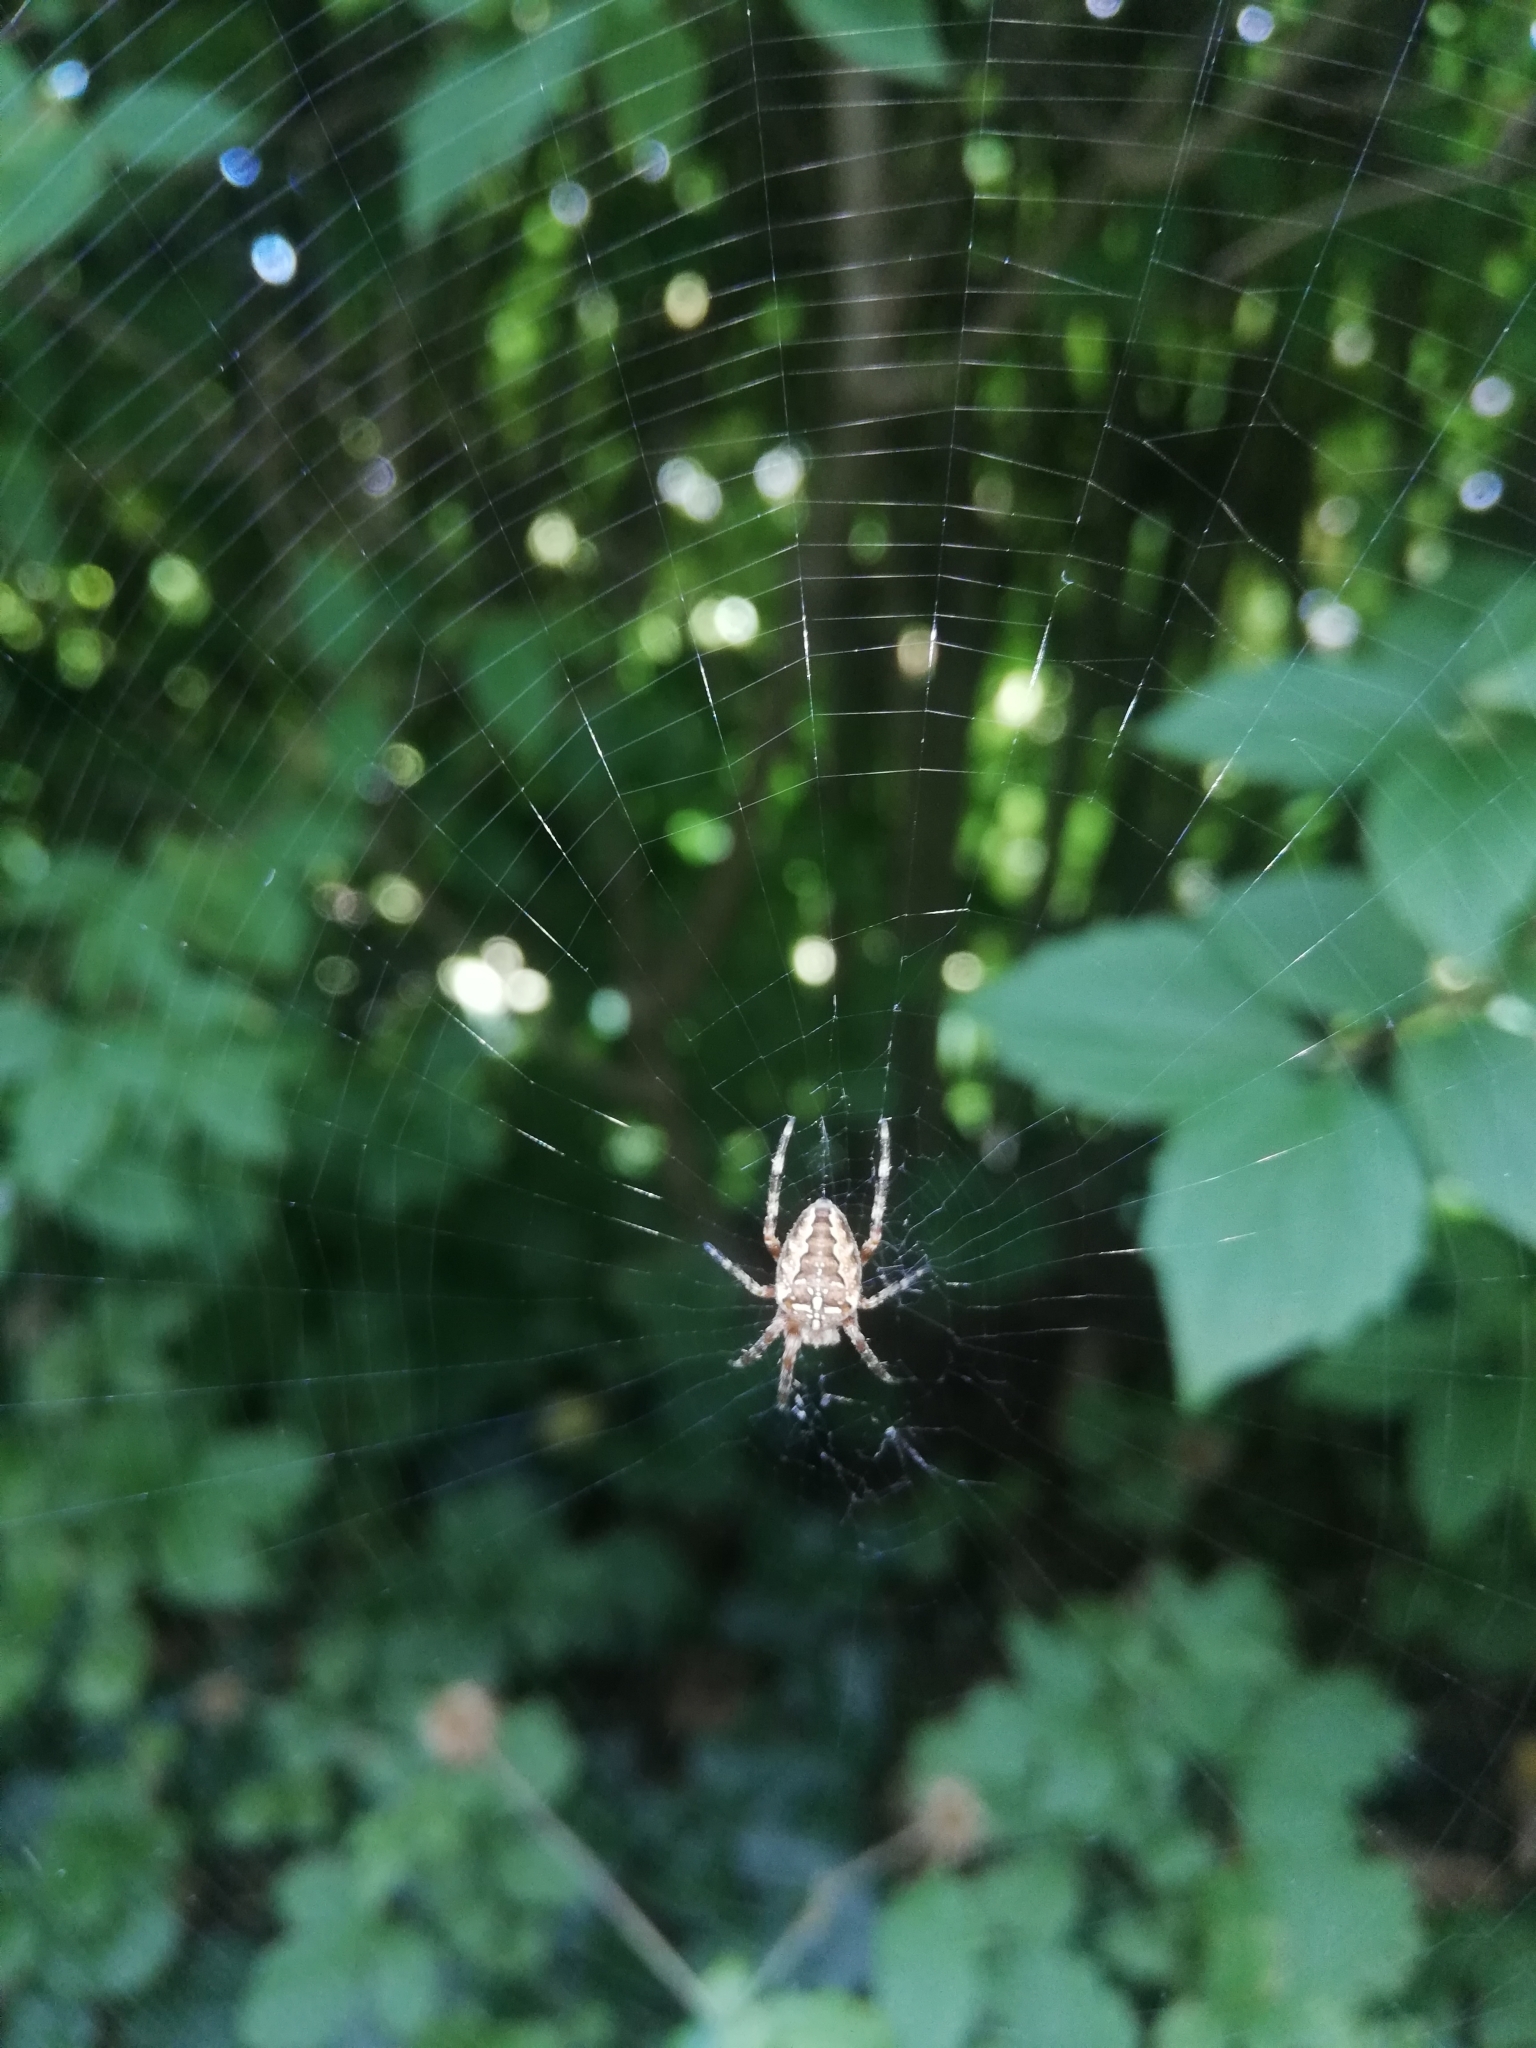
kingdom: Animalia
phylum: Arthropoda
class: Arachnida
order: Araneae
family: Araneidae
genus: Araneus
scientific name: Araneus diadematus
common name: Cross orbweaver
